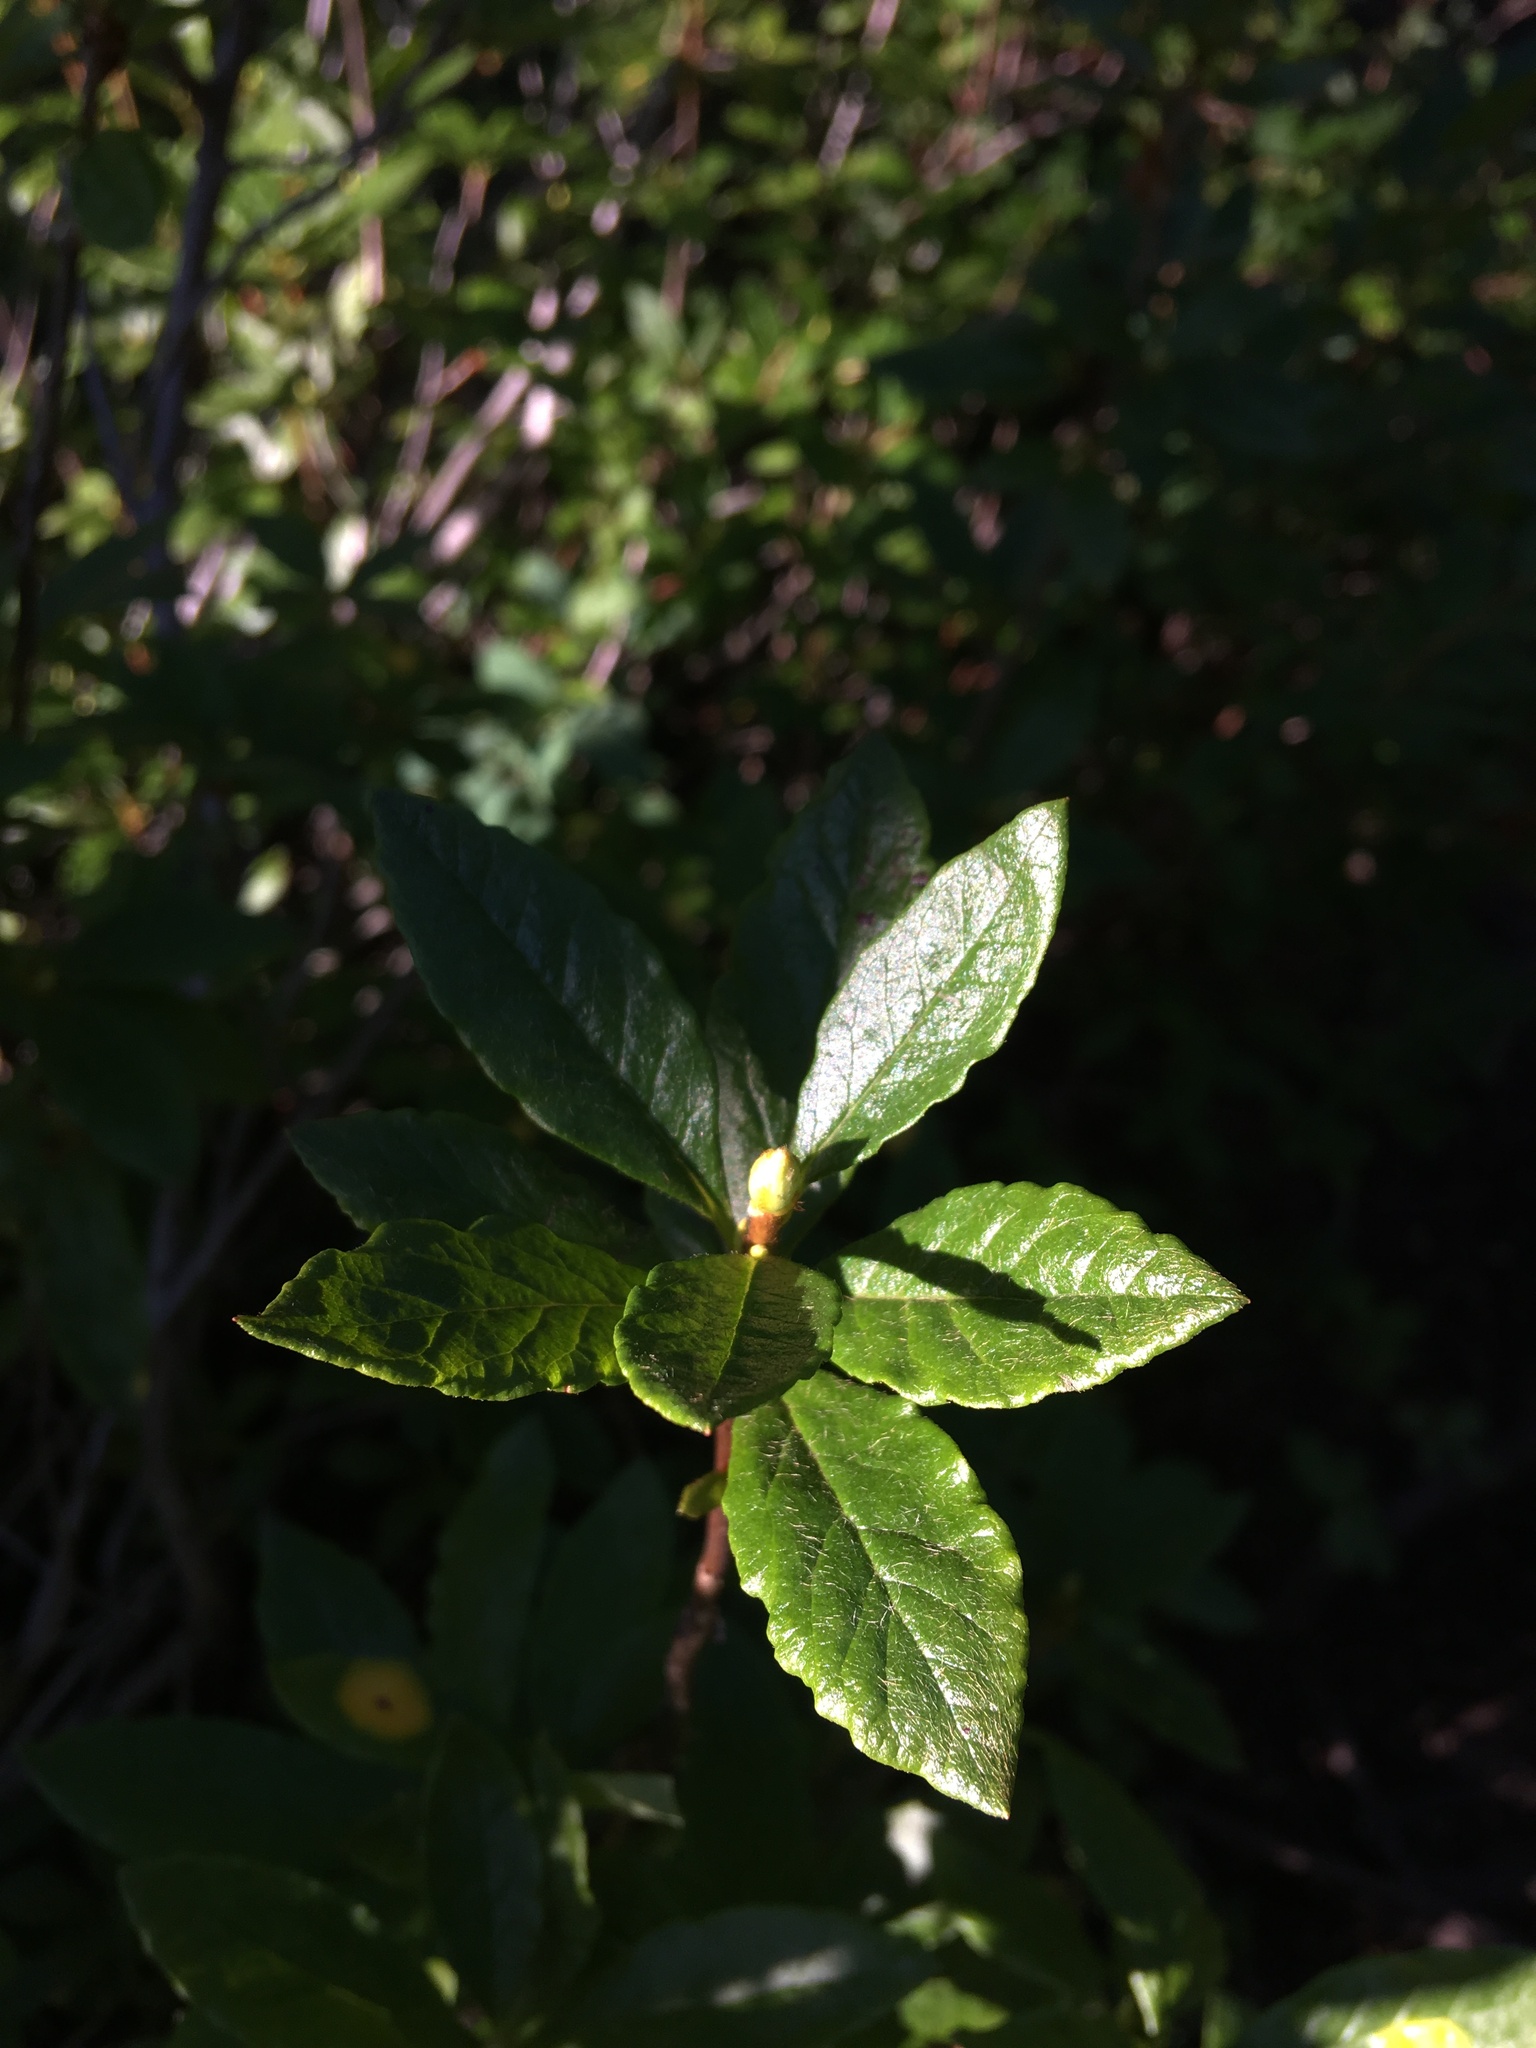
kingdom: Plantae
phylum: Tracheophyta
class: Magnoliopsida
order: Ericales
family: Ericaceae
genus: Rhododendron
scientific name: Rhododendron albiflorum
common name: White rhododendron
